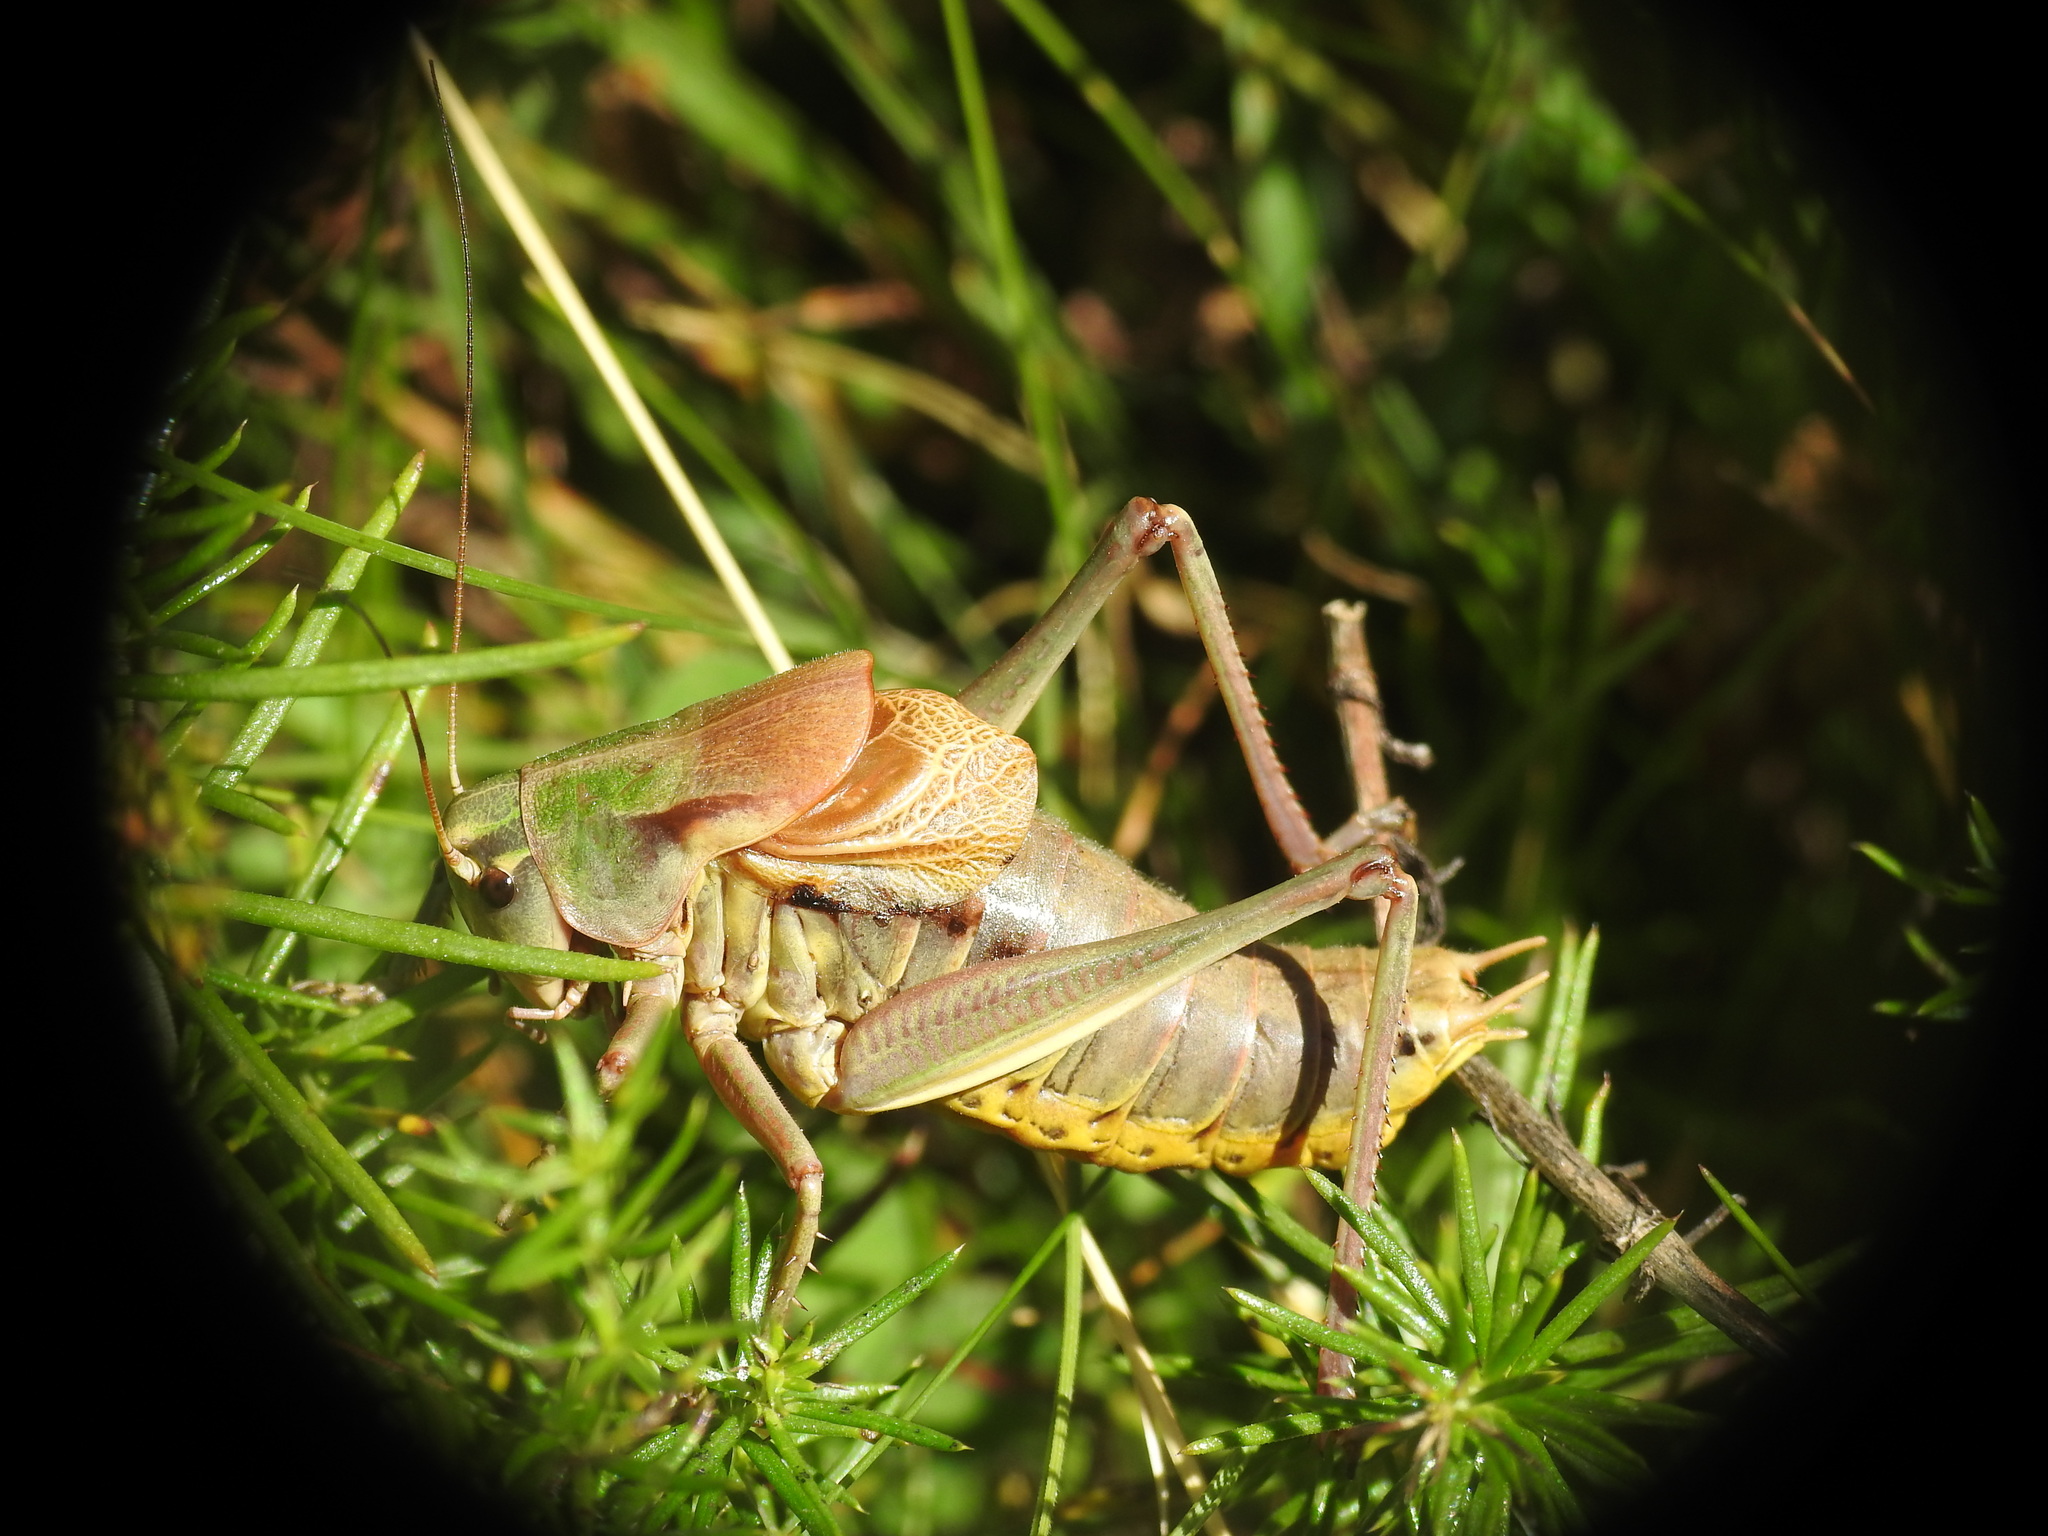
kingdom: Animalia
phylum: Arthropoda
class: Insecta
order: Orthoptera
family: Tettigoniidae
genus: Psorodonotus
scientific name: Psorodonotus illyricus
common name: Illyrican walking bush-cricket
